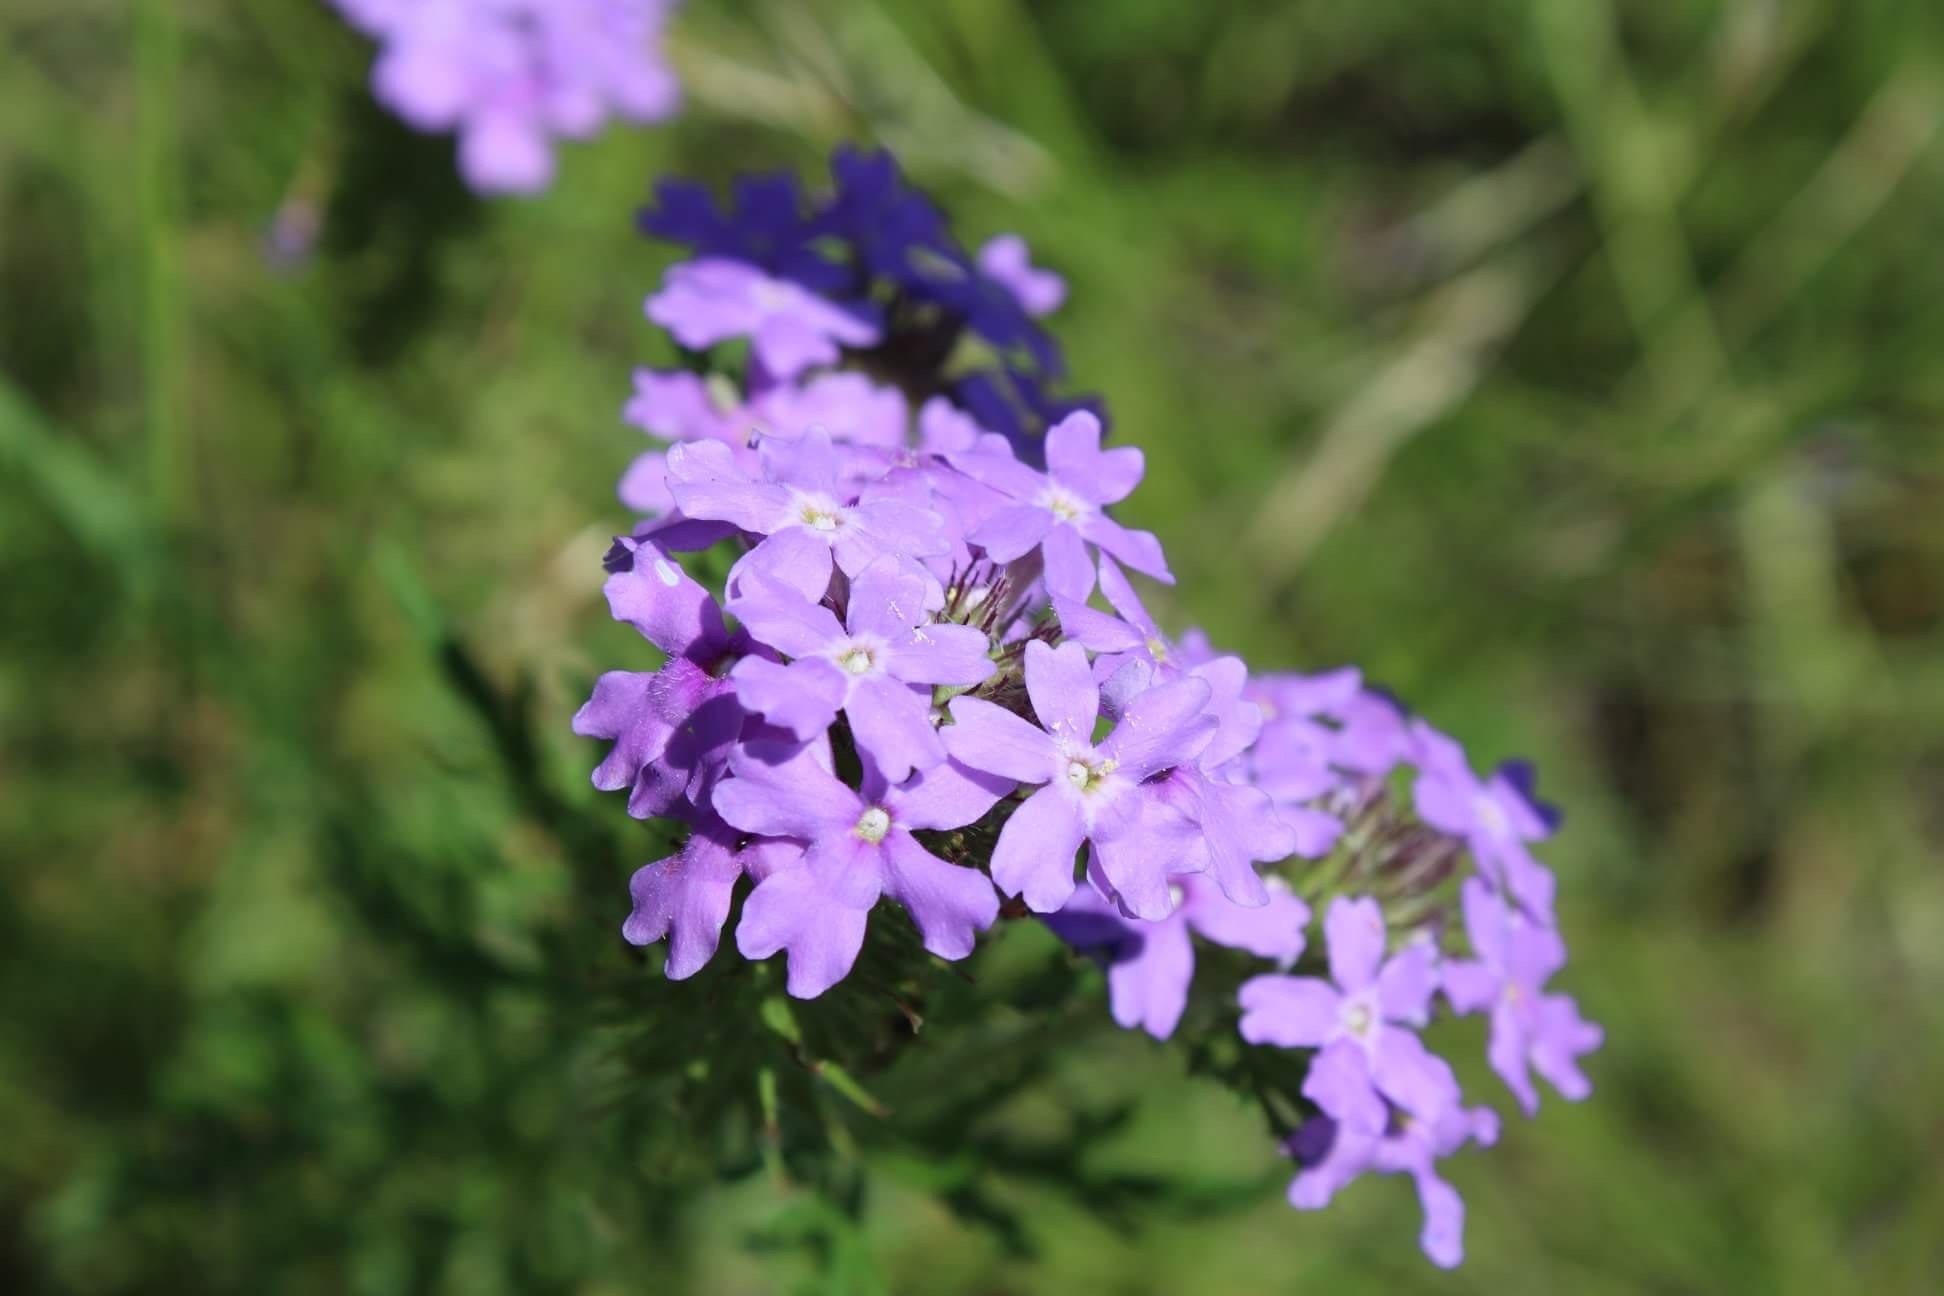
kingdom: Plantae
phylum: Tracheophyta
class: Magnoliopsida
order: Lamiales
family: Verbenaceae
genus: Verbena
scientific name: Verbena bipinnatifida
